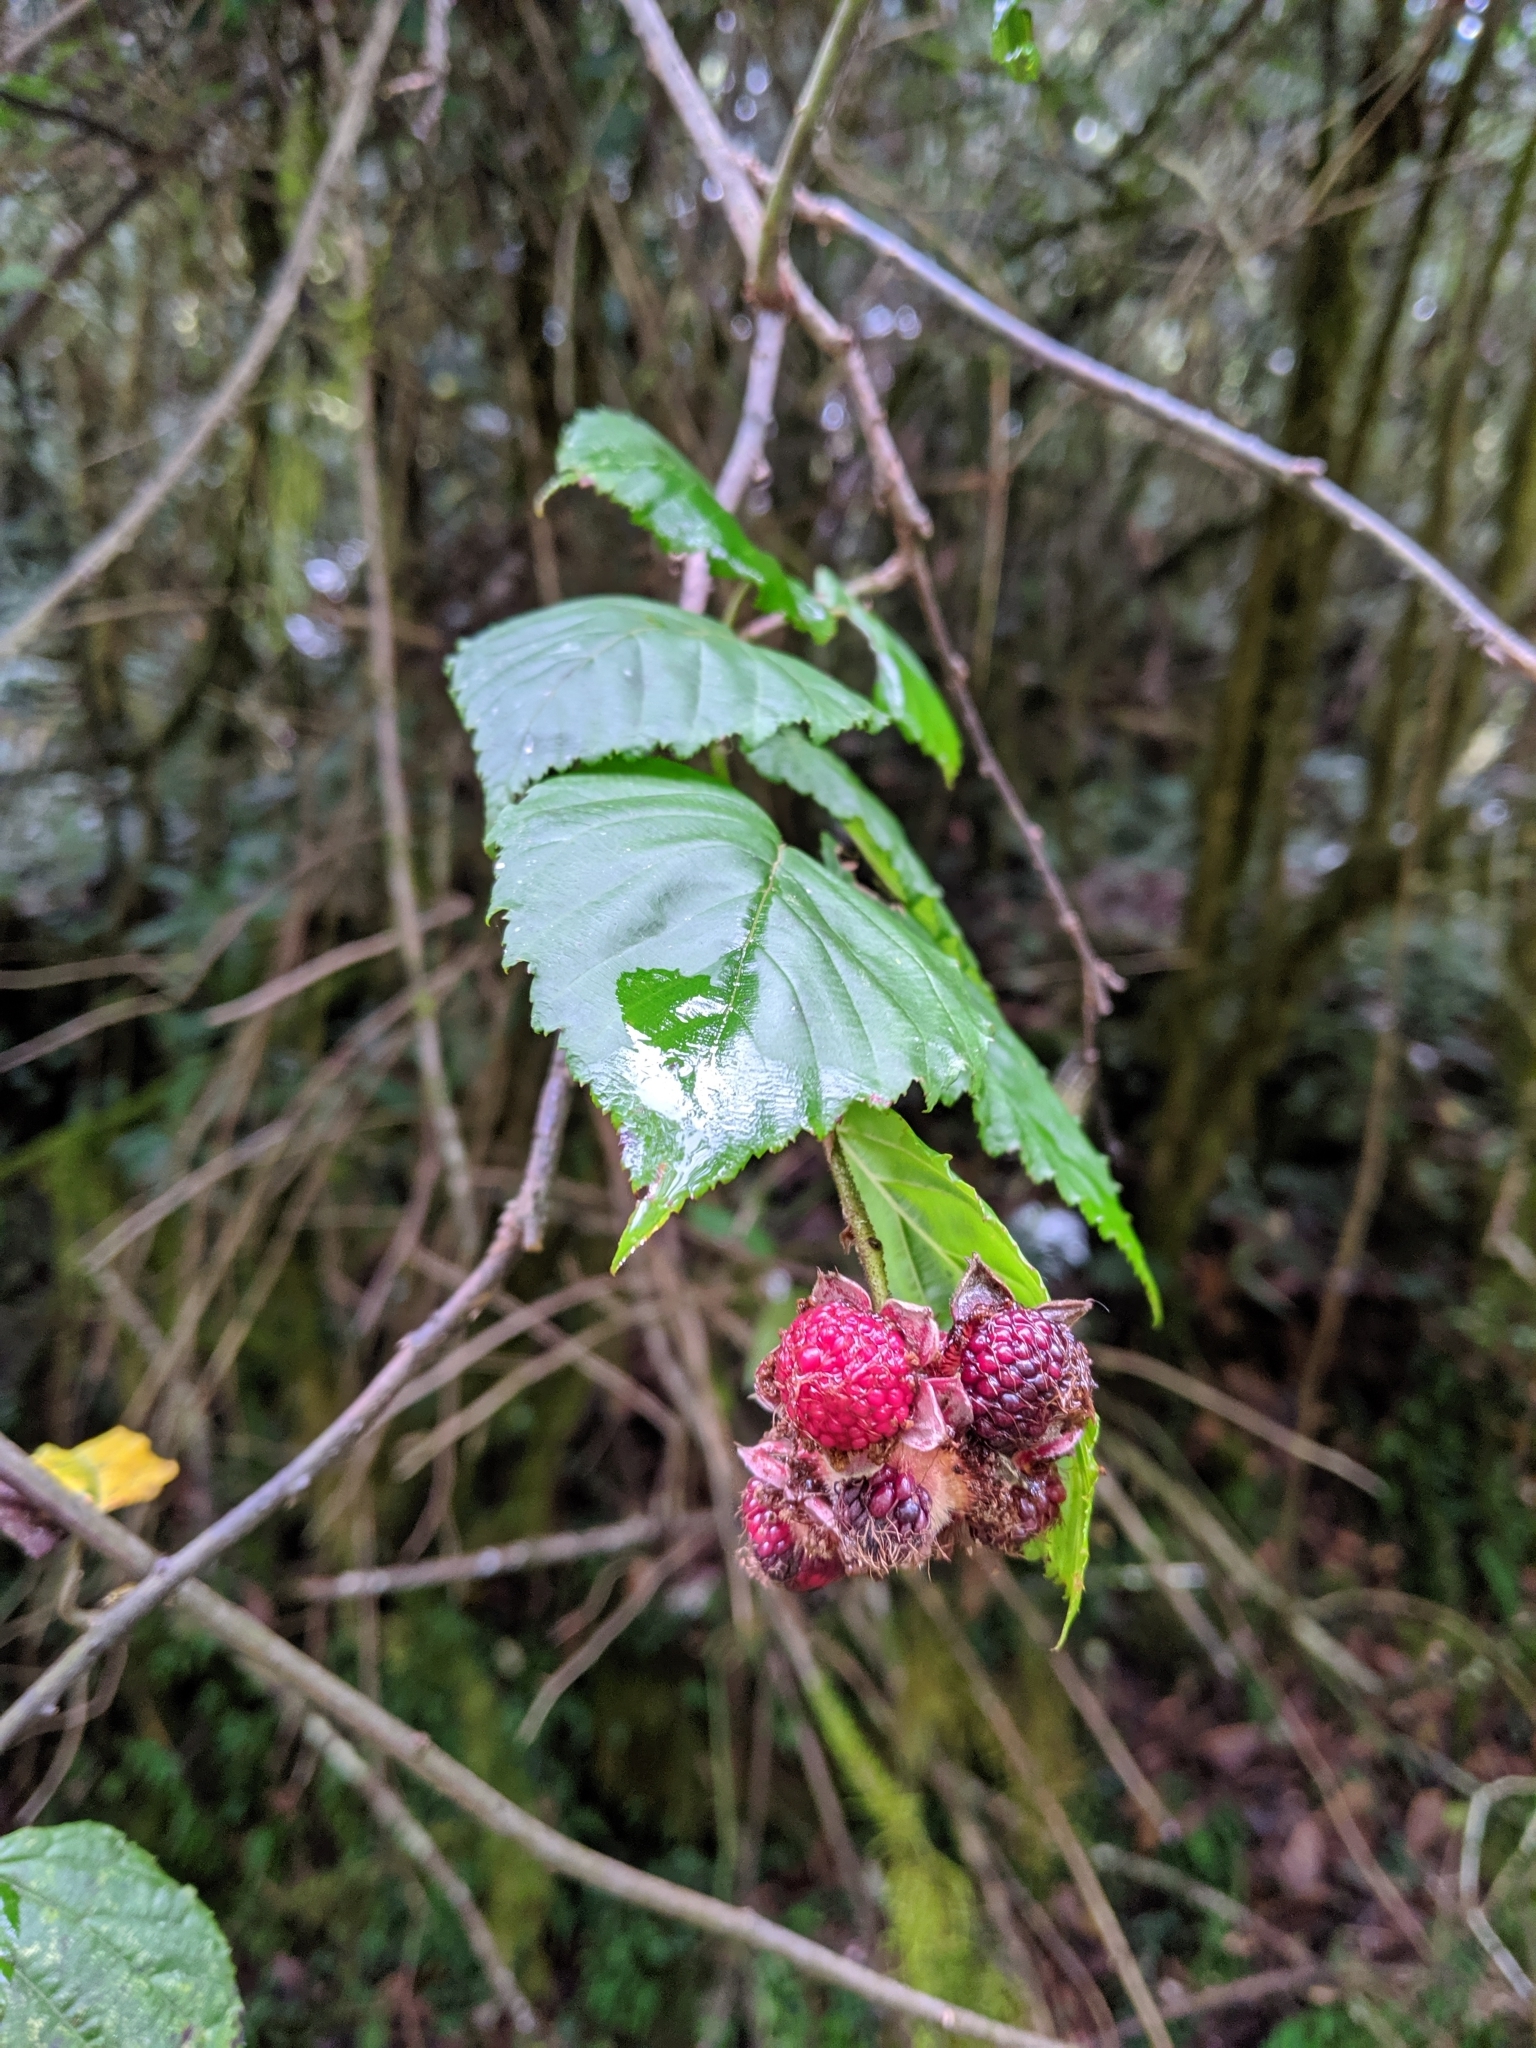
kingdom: Plantae
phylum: Tracheophyta
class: Magnoliopsida
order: Rosales
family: Rosaceae
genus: Rubus
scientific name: Rubus kawakamii
